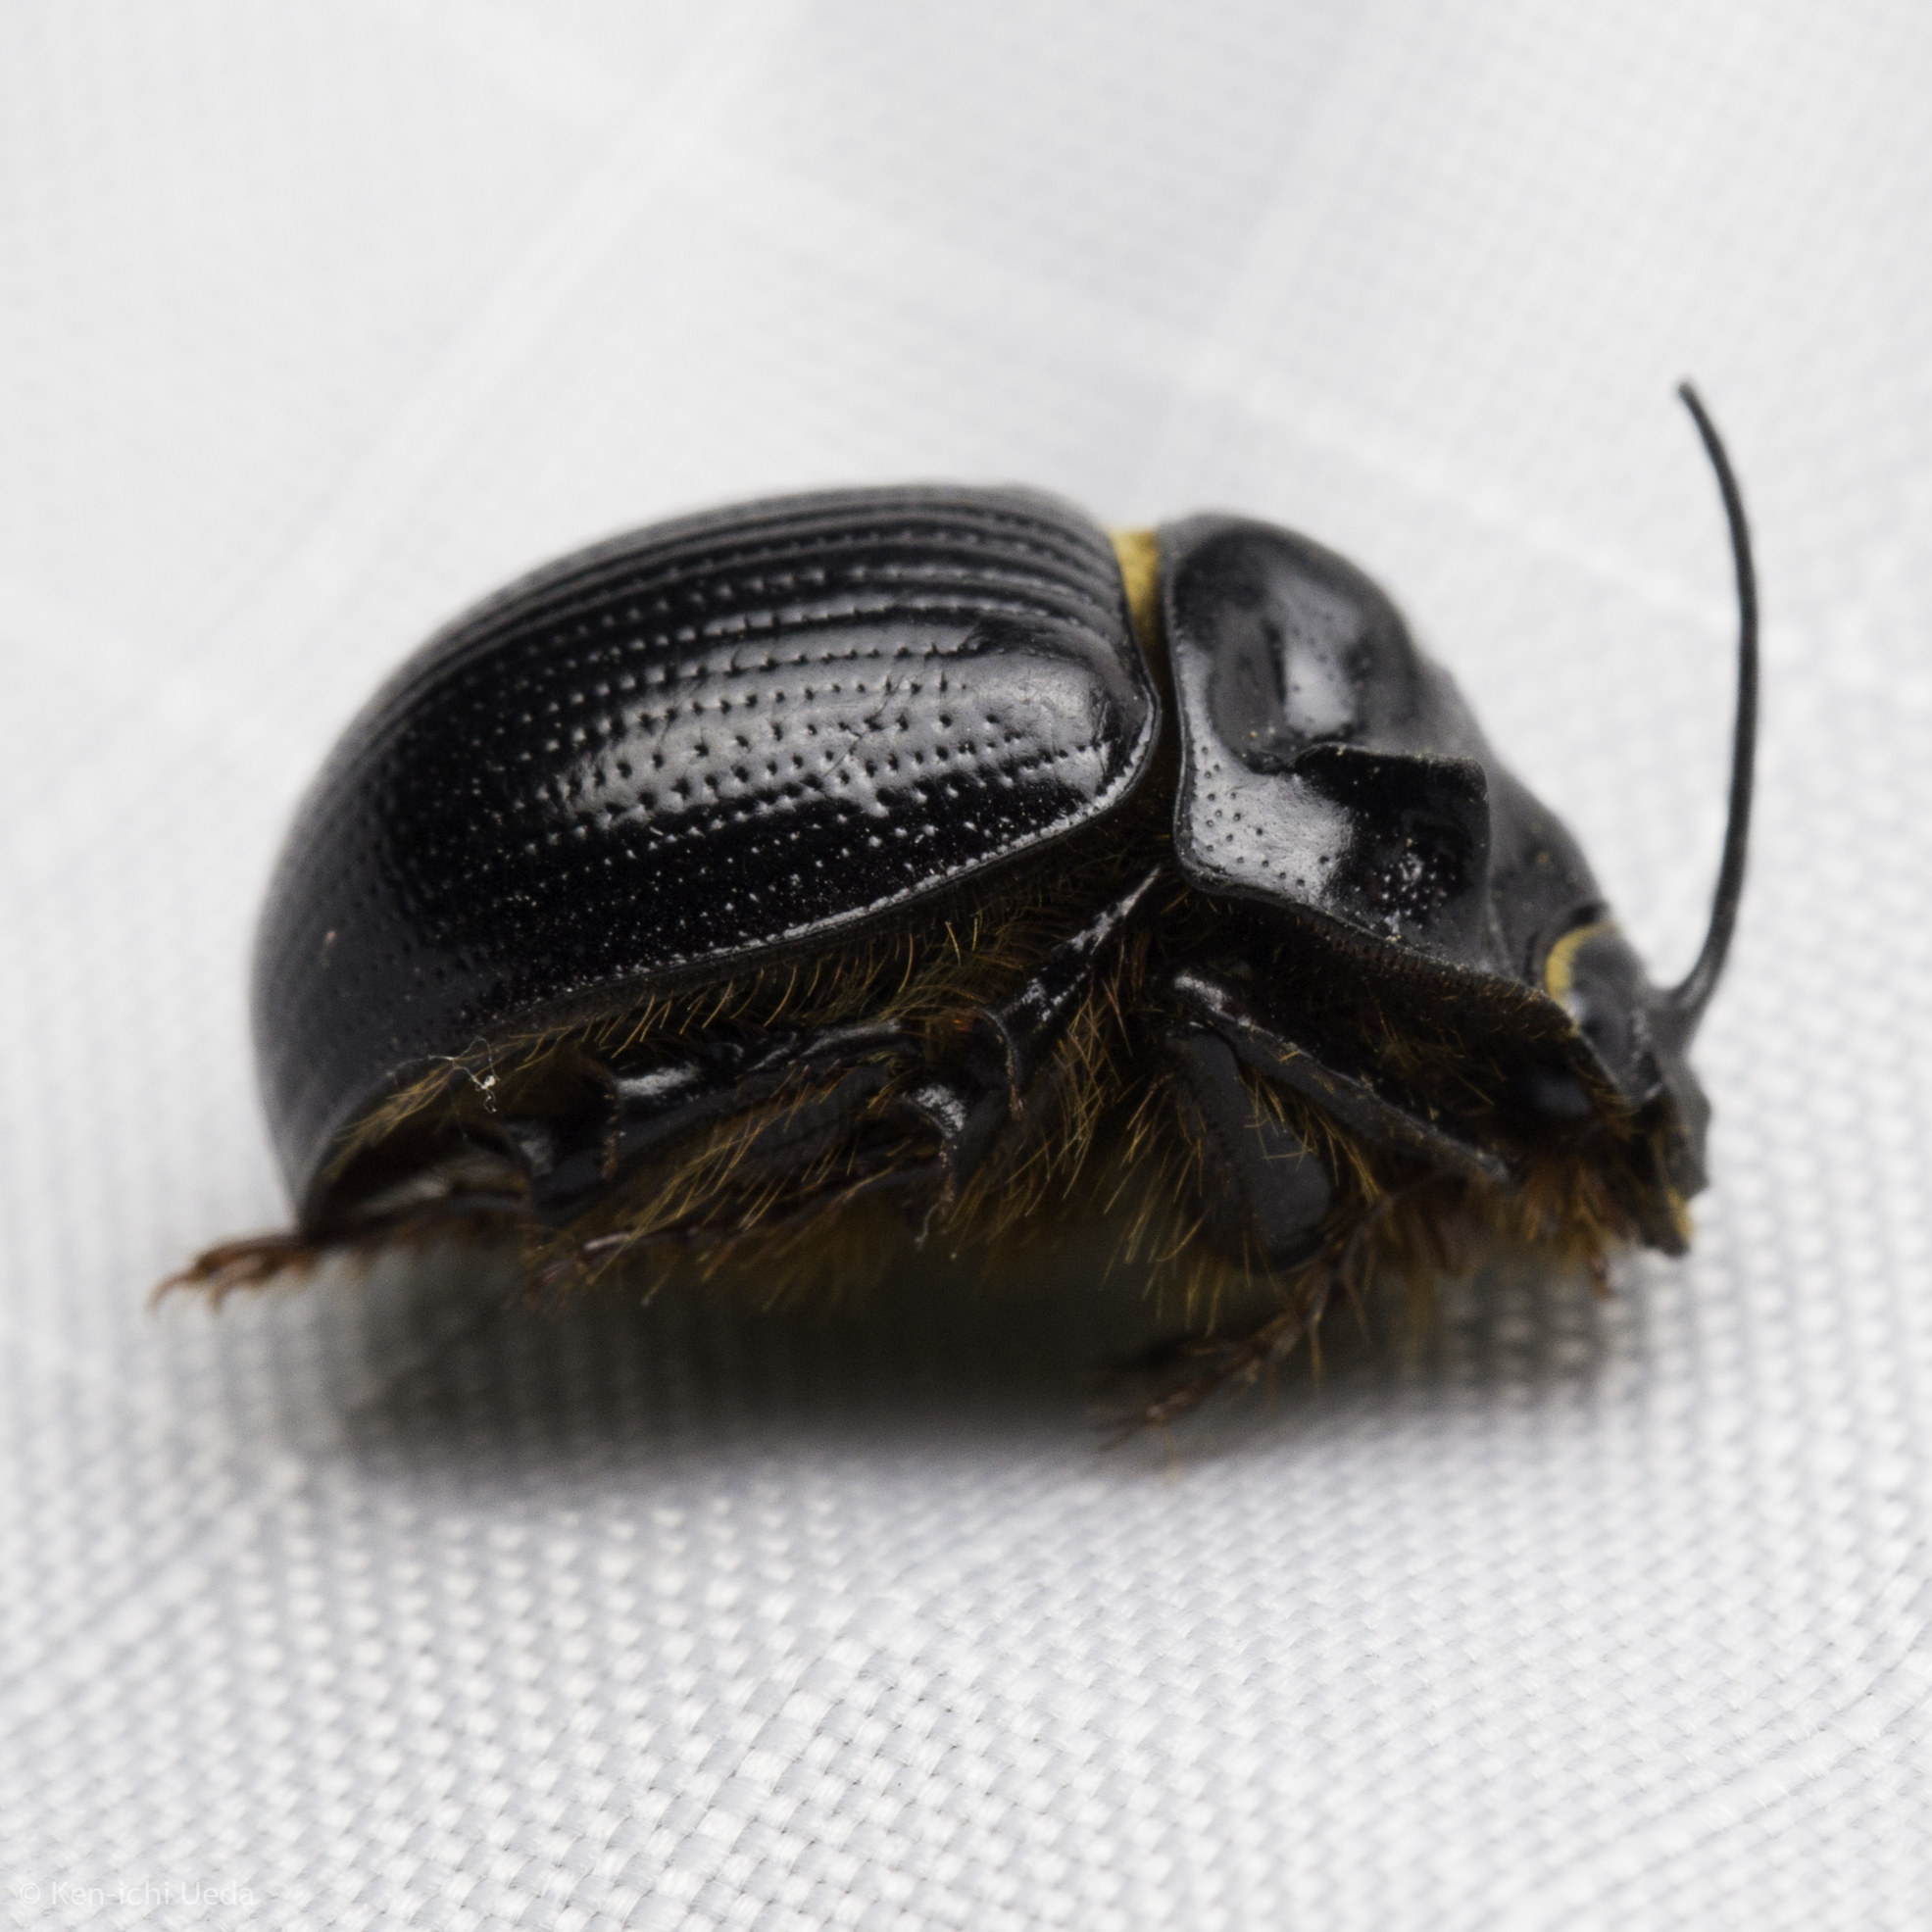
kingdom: Animalia
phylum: Arthropoda
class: Insecta
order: Coleoptera
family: Geotrupidae
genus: Odonteus
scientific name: Odonteus obesus
